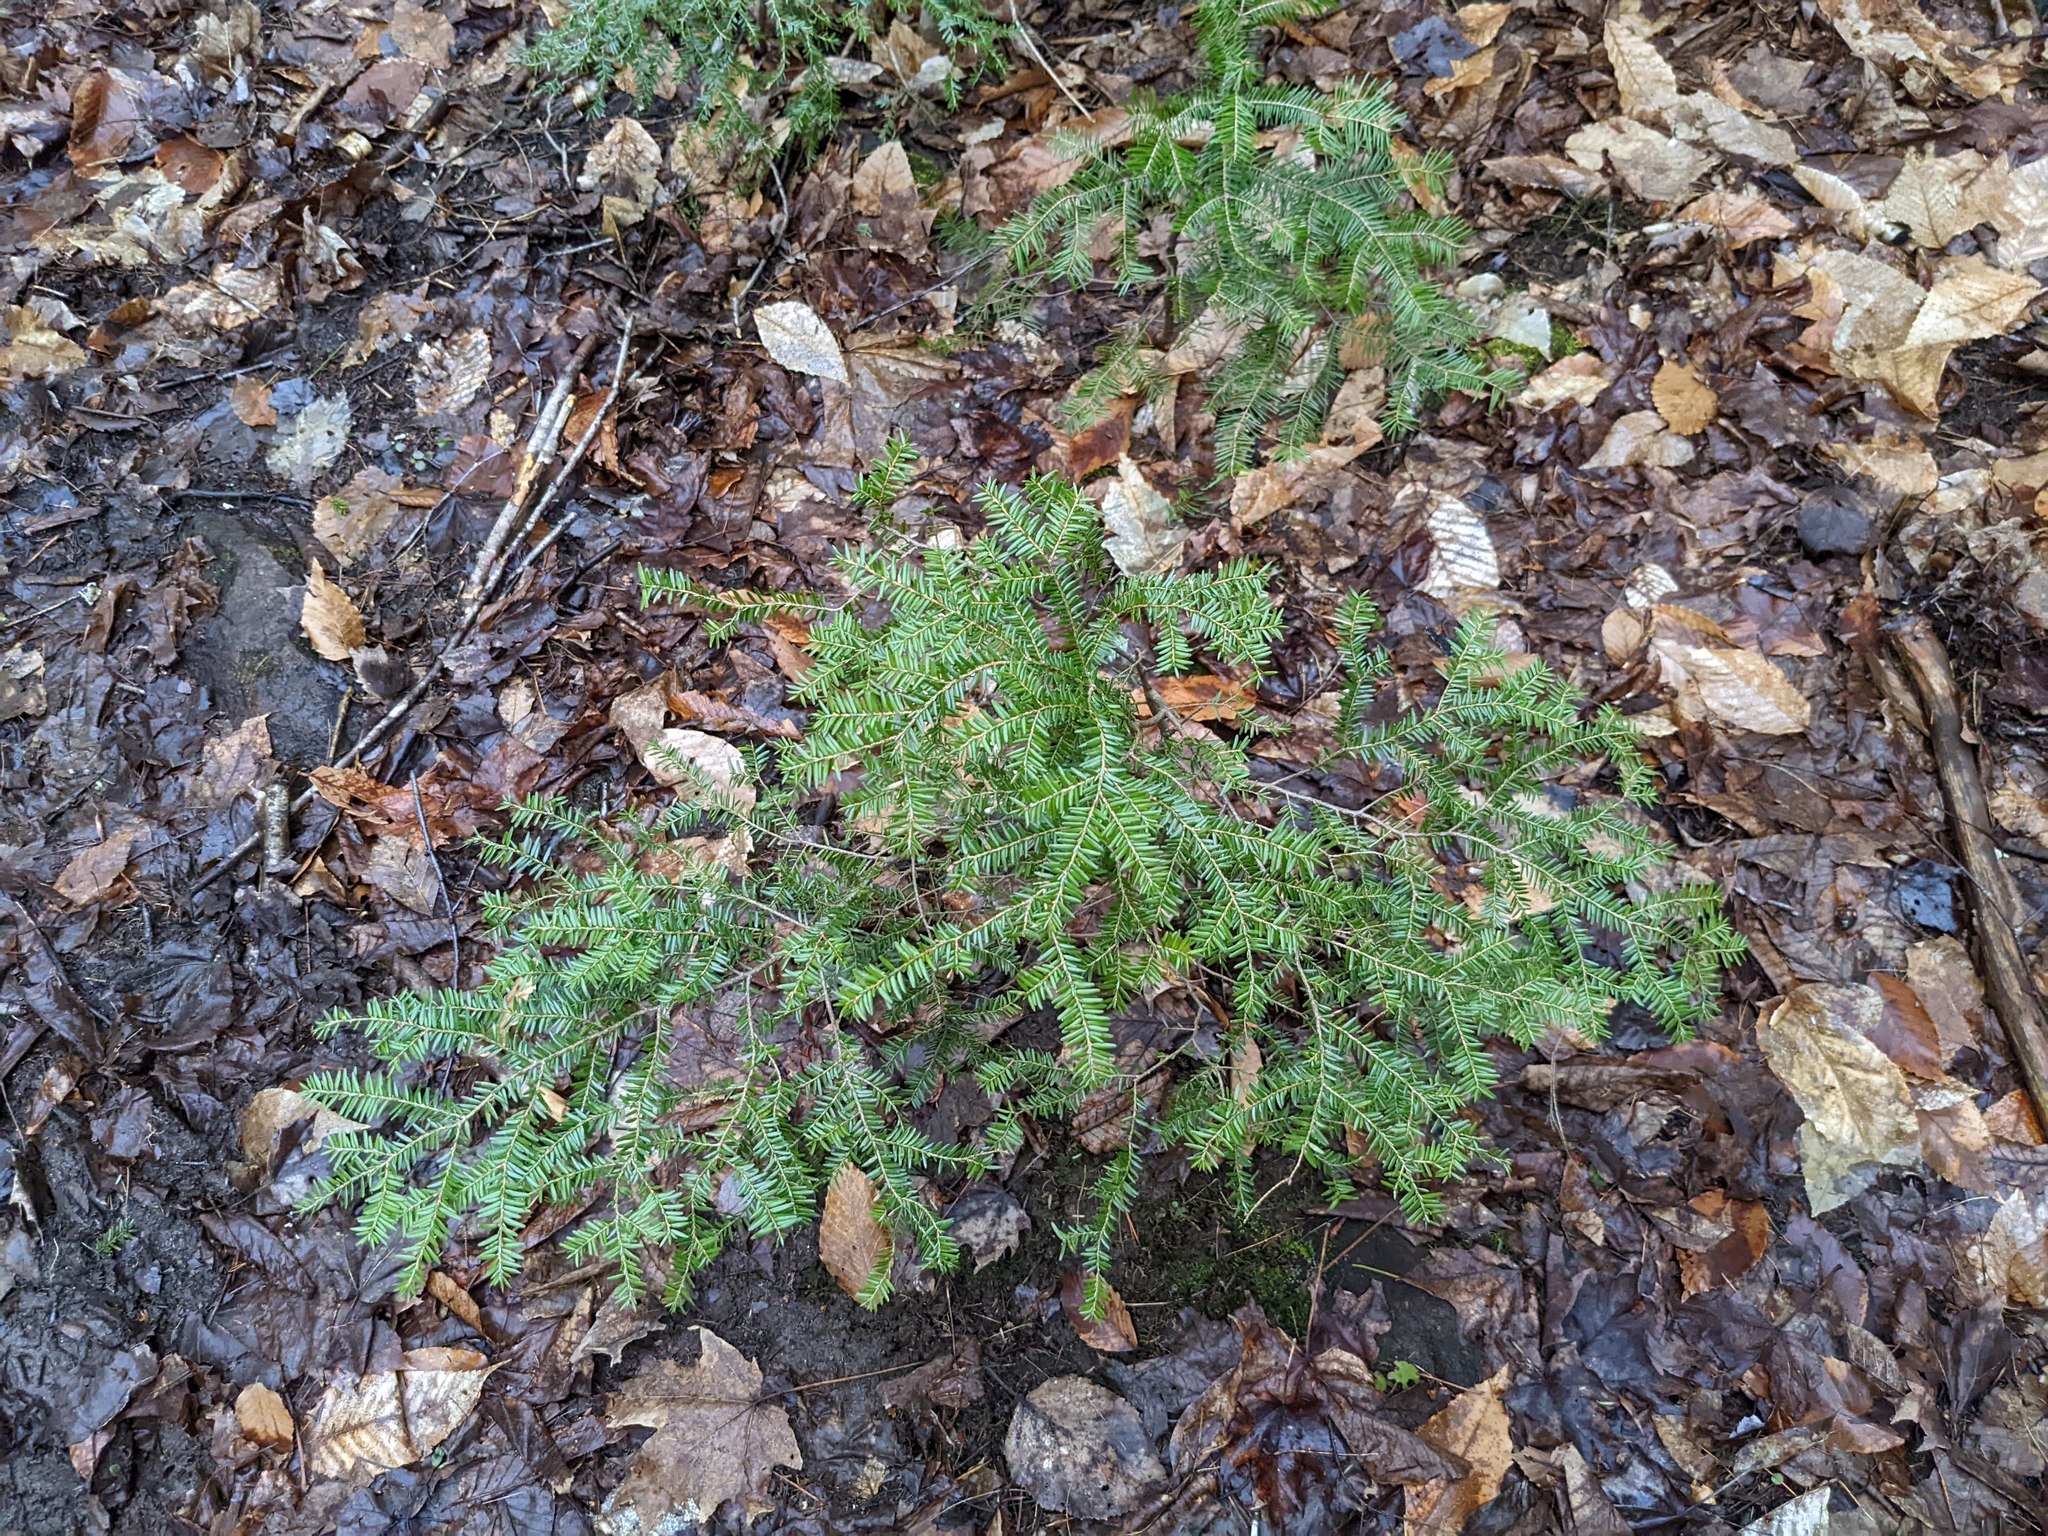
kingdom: Plantae
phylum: Tracheophyta
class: Pinopsida
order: Pinales
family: Pinaceae
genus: Tsuga
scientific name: Tsuga canadensis
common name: Eastern hemlock
